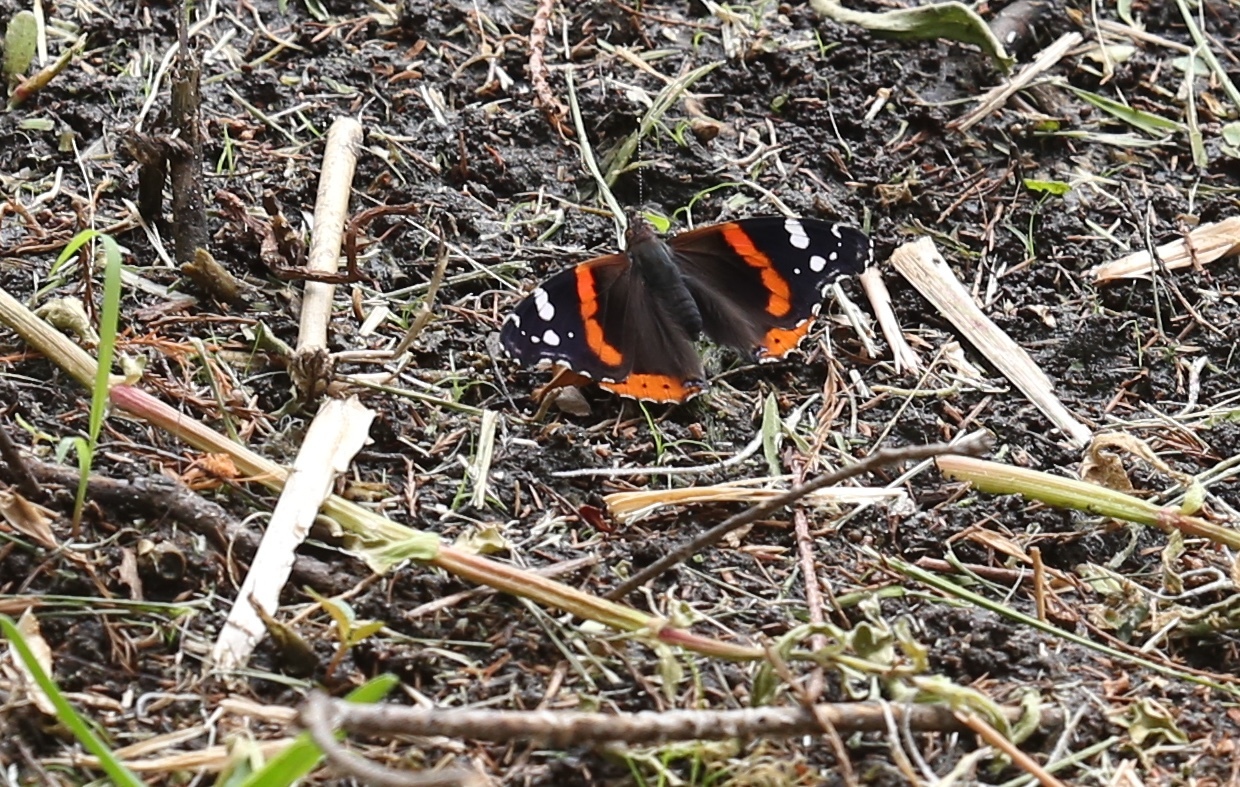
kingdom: Animalia
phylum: Arthropoda
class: Insecta
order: Lepidoptera
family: Nymphalidae
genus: Vanessa
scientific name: Vanessa atalanta
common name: Red admiral
